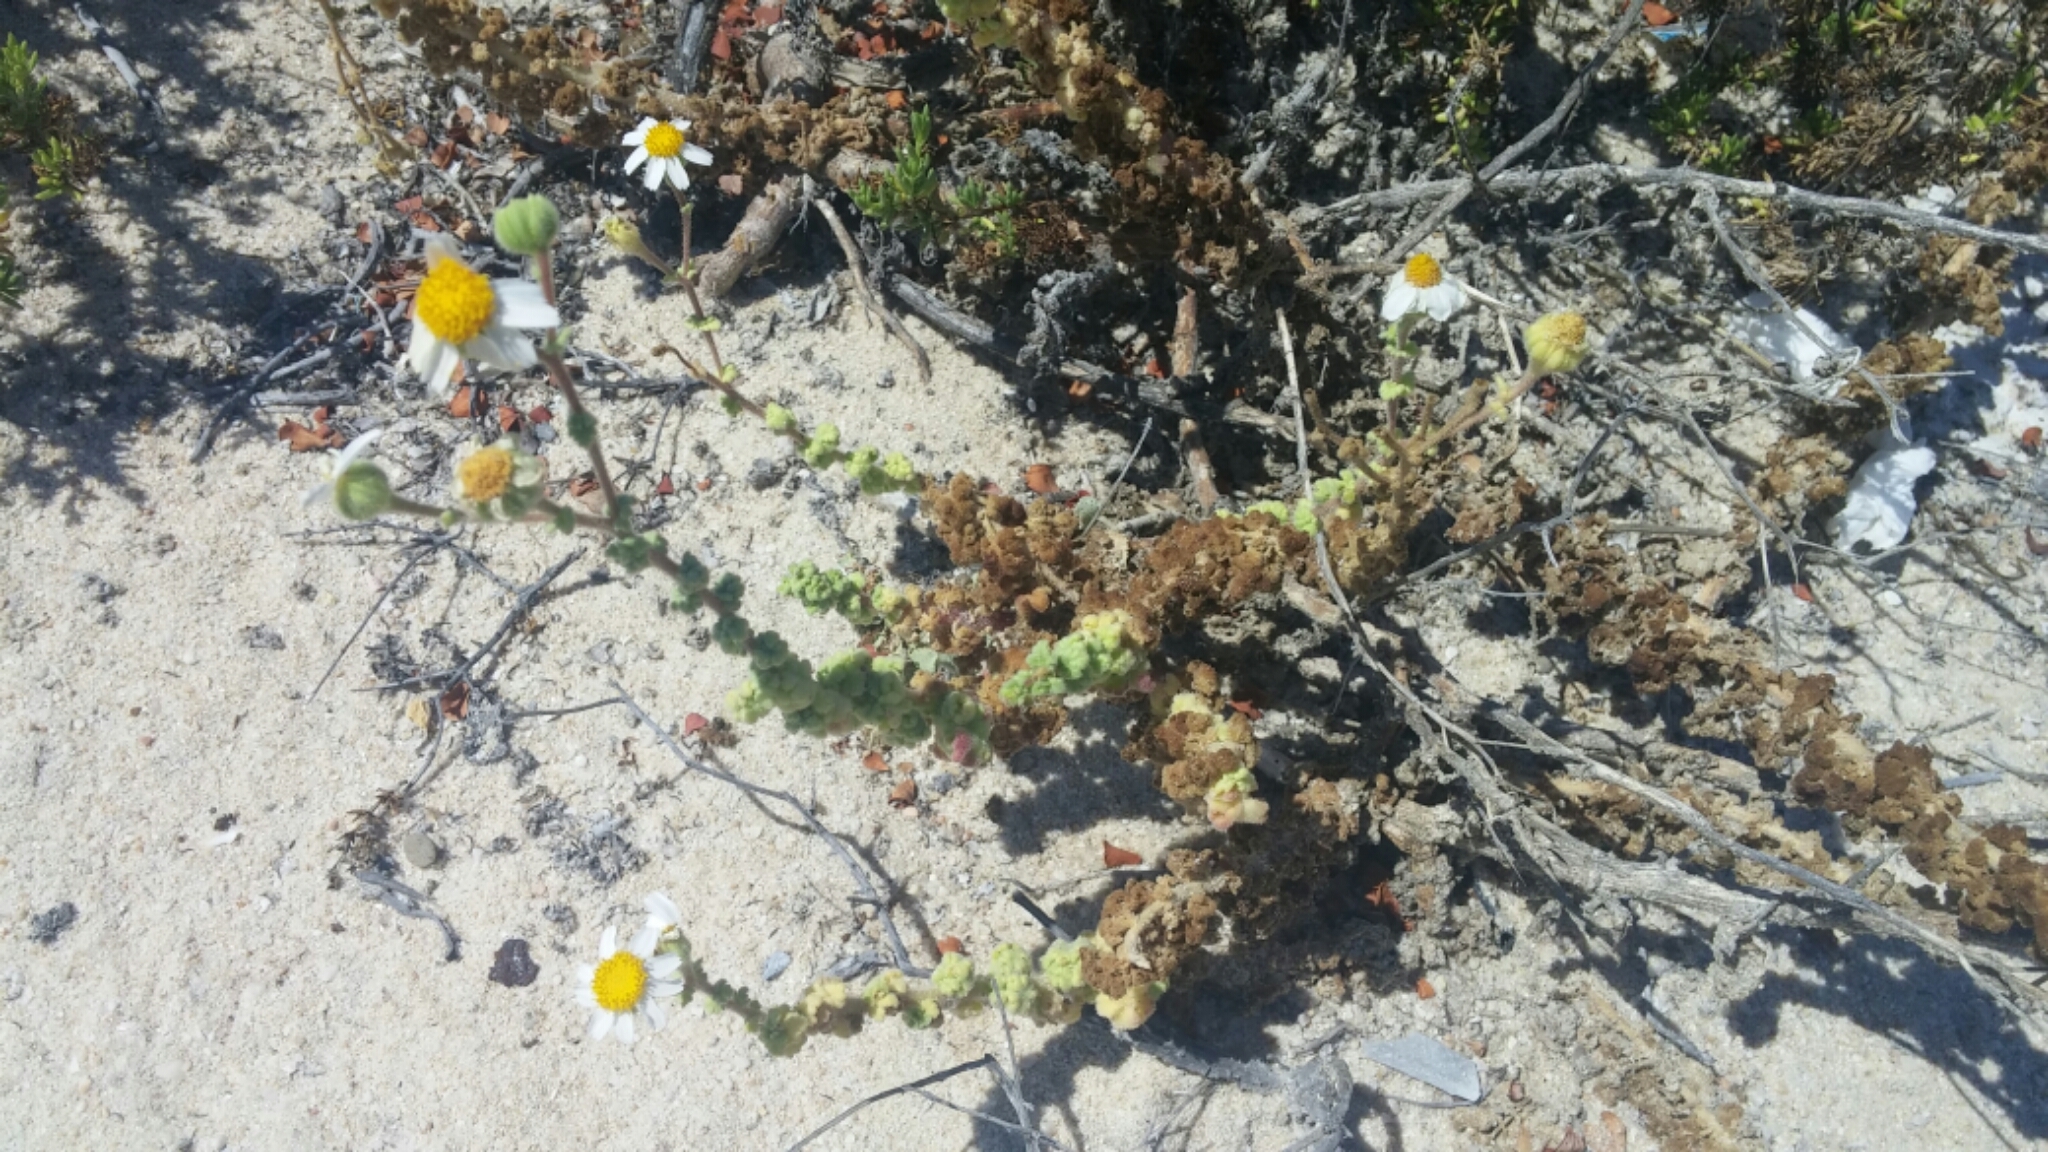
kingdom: Plantae
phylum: Tracheophyta
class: Magnoliopsida
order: Asterales
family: Asteraceae
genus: Perityle
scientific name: Perityle crassifolia
